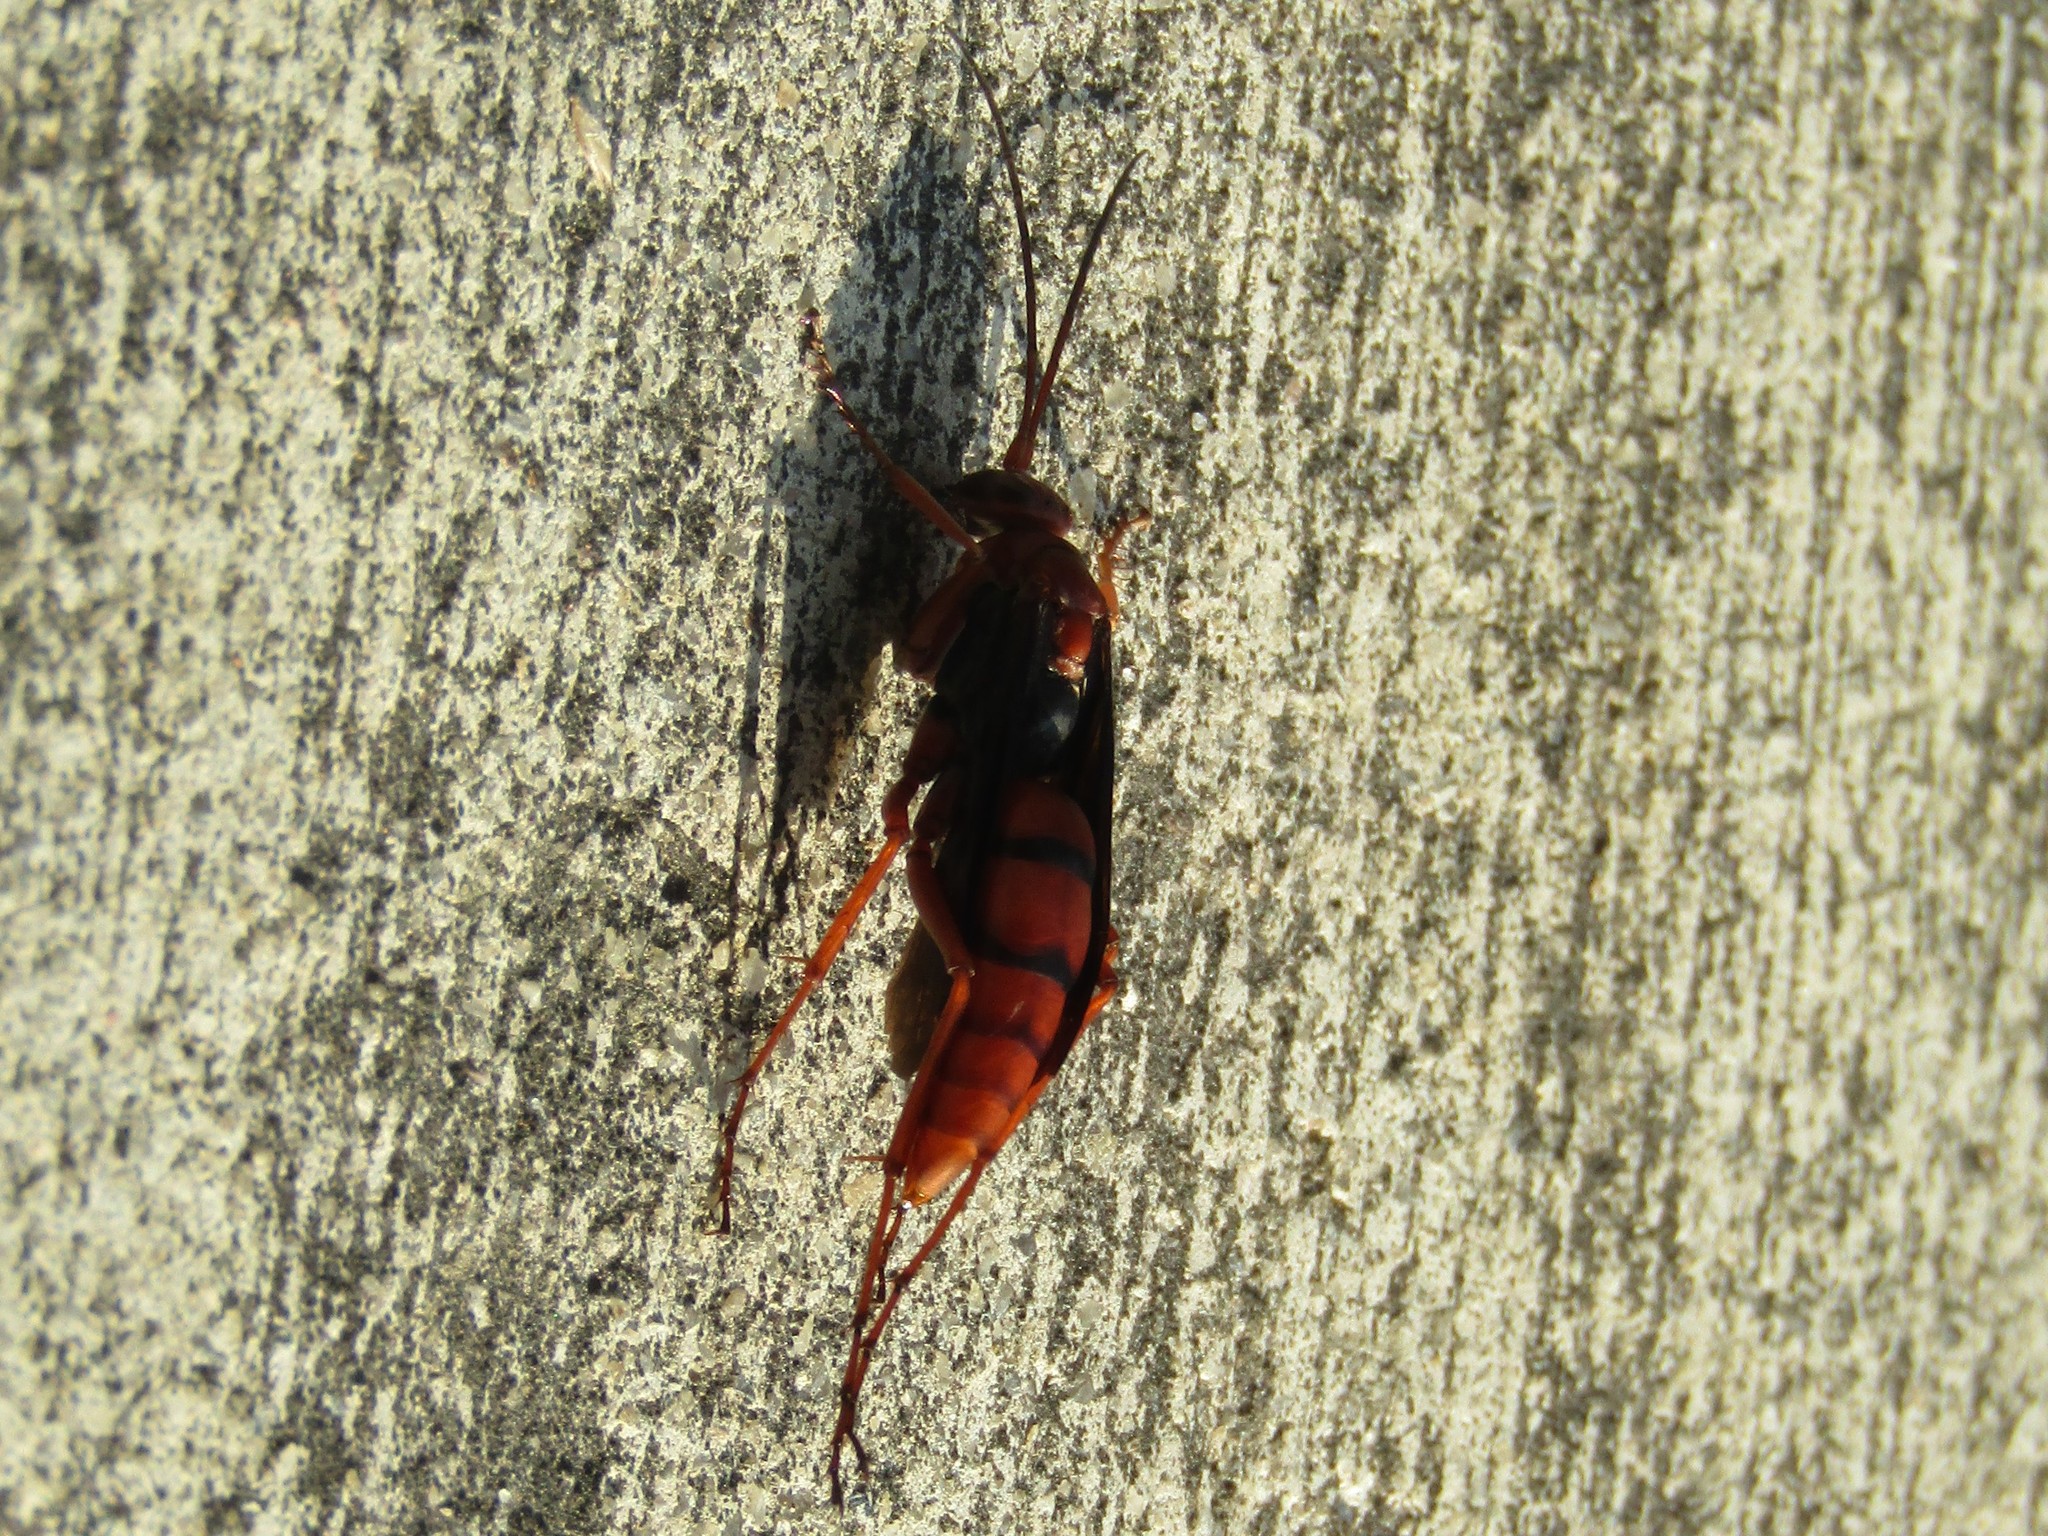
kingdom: Animalia
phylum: Arthropoda
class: Insecta
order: Hymenoptera
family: Pompilidae
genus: Tachypompilus
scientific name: Tachypompilus ferrugineus
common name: Rusty spider wasp
